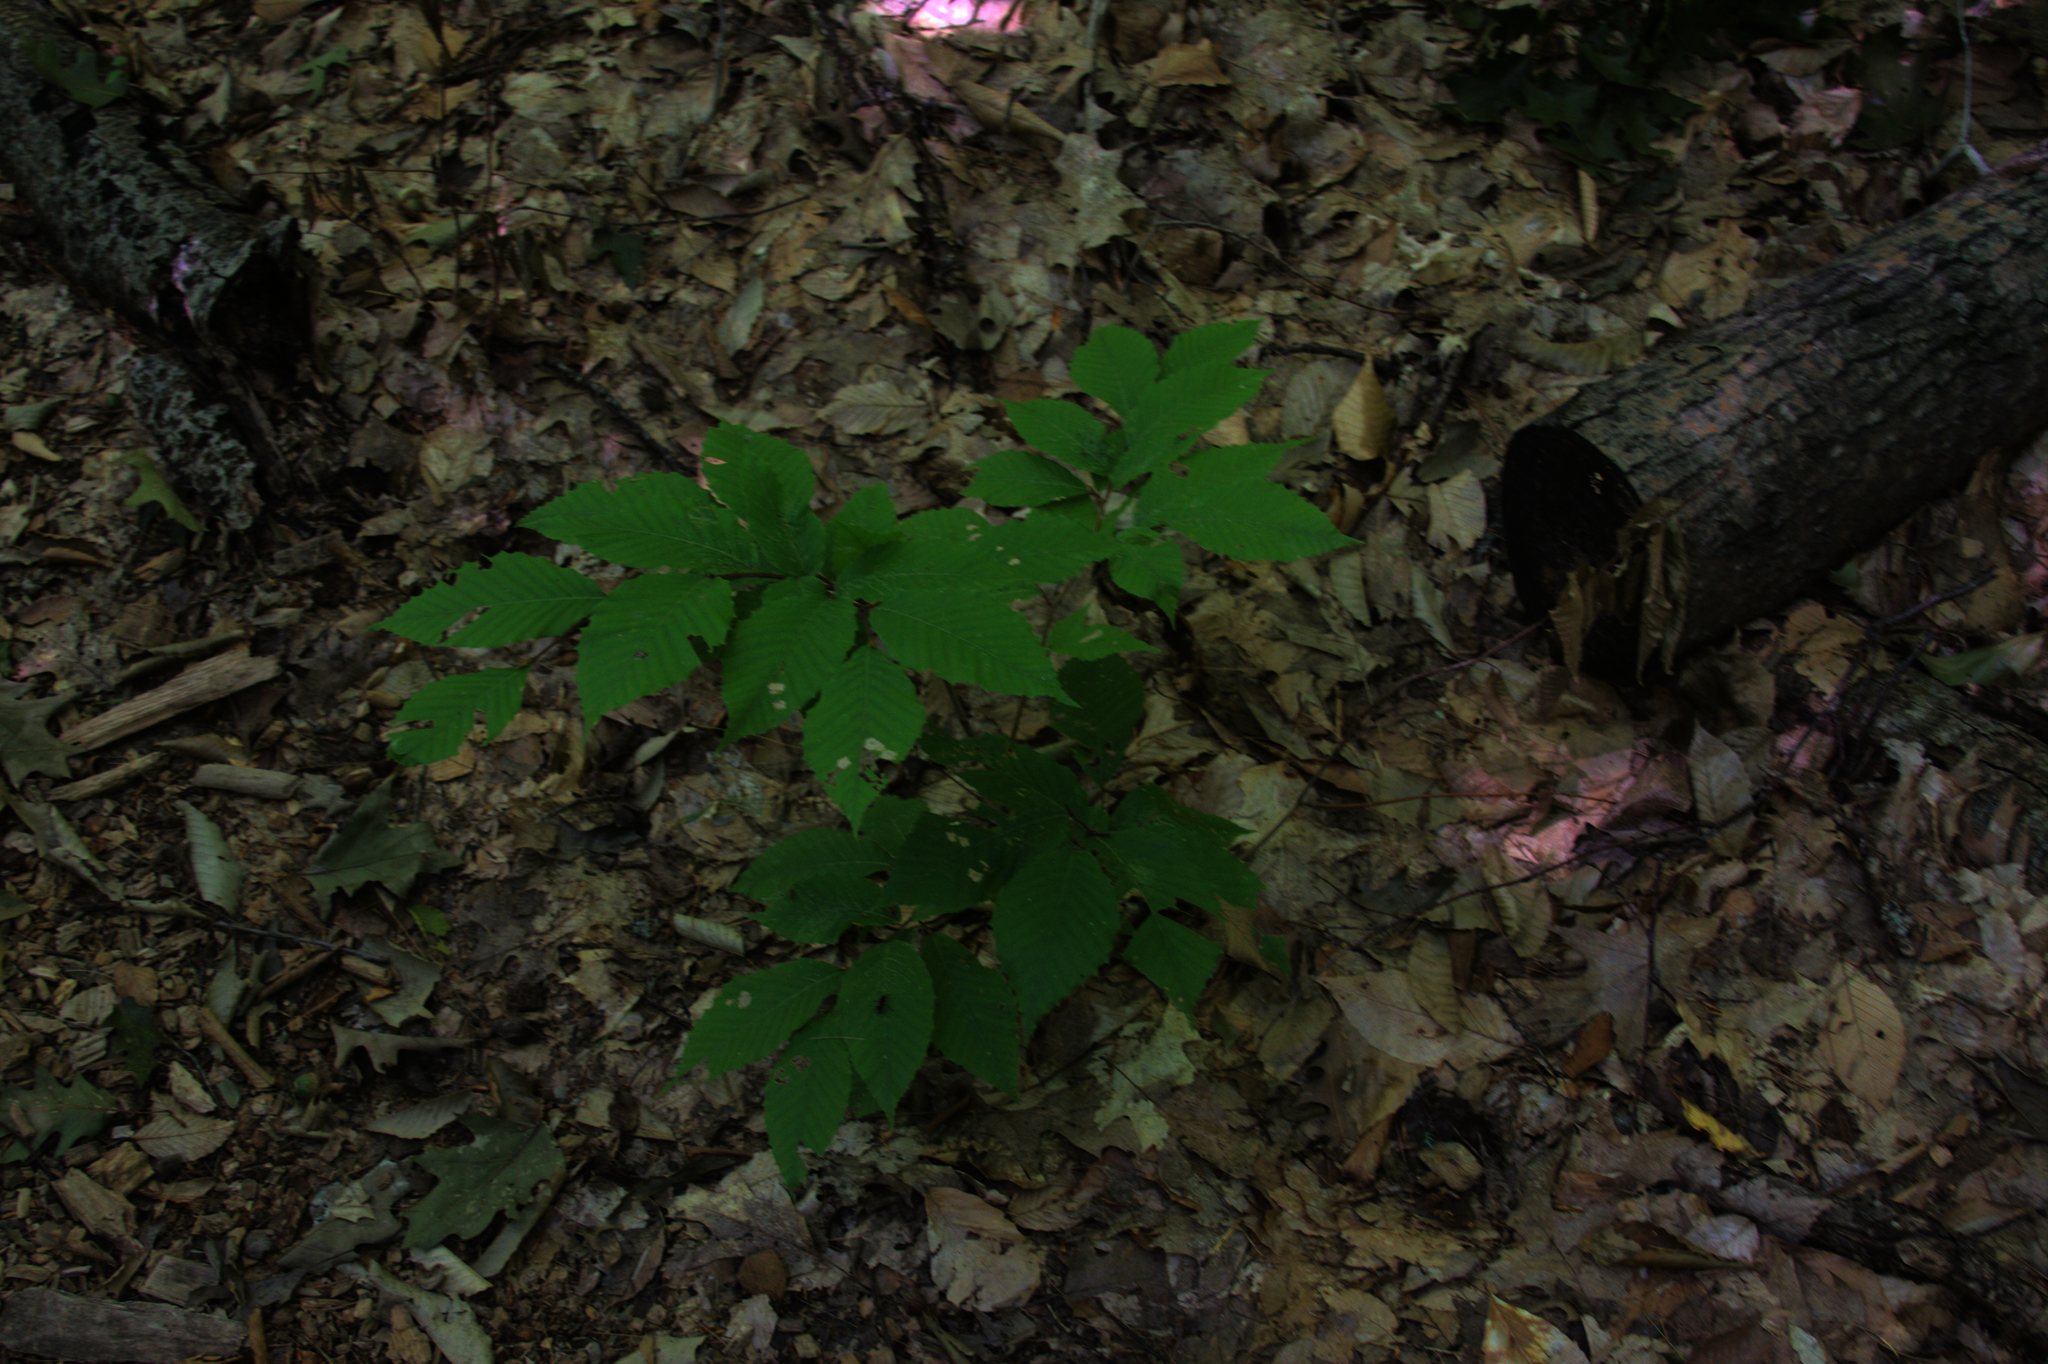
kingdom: Plantae
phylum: Tracheophyta
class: Magnoliopsida
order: Fagales
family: Fagaceae
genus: Fagus
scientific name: Fagus grandifolia
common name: American beech
